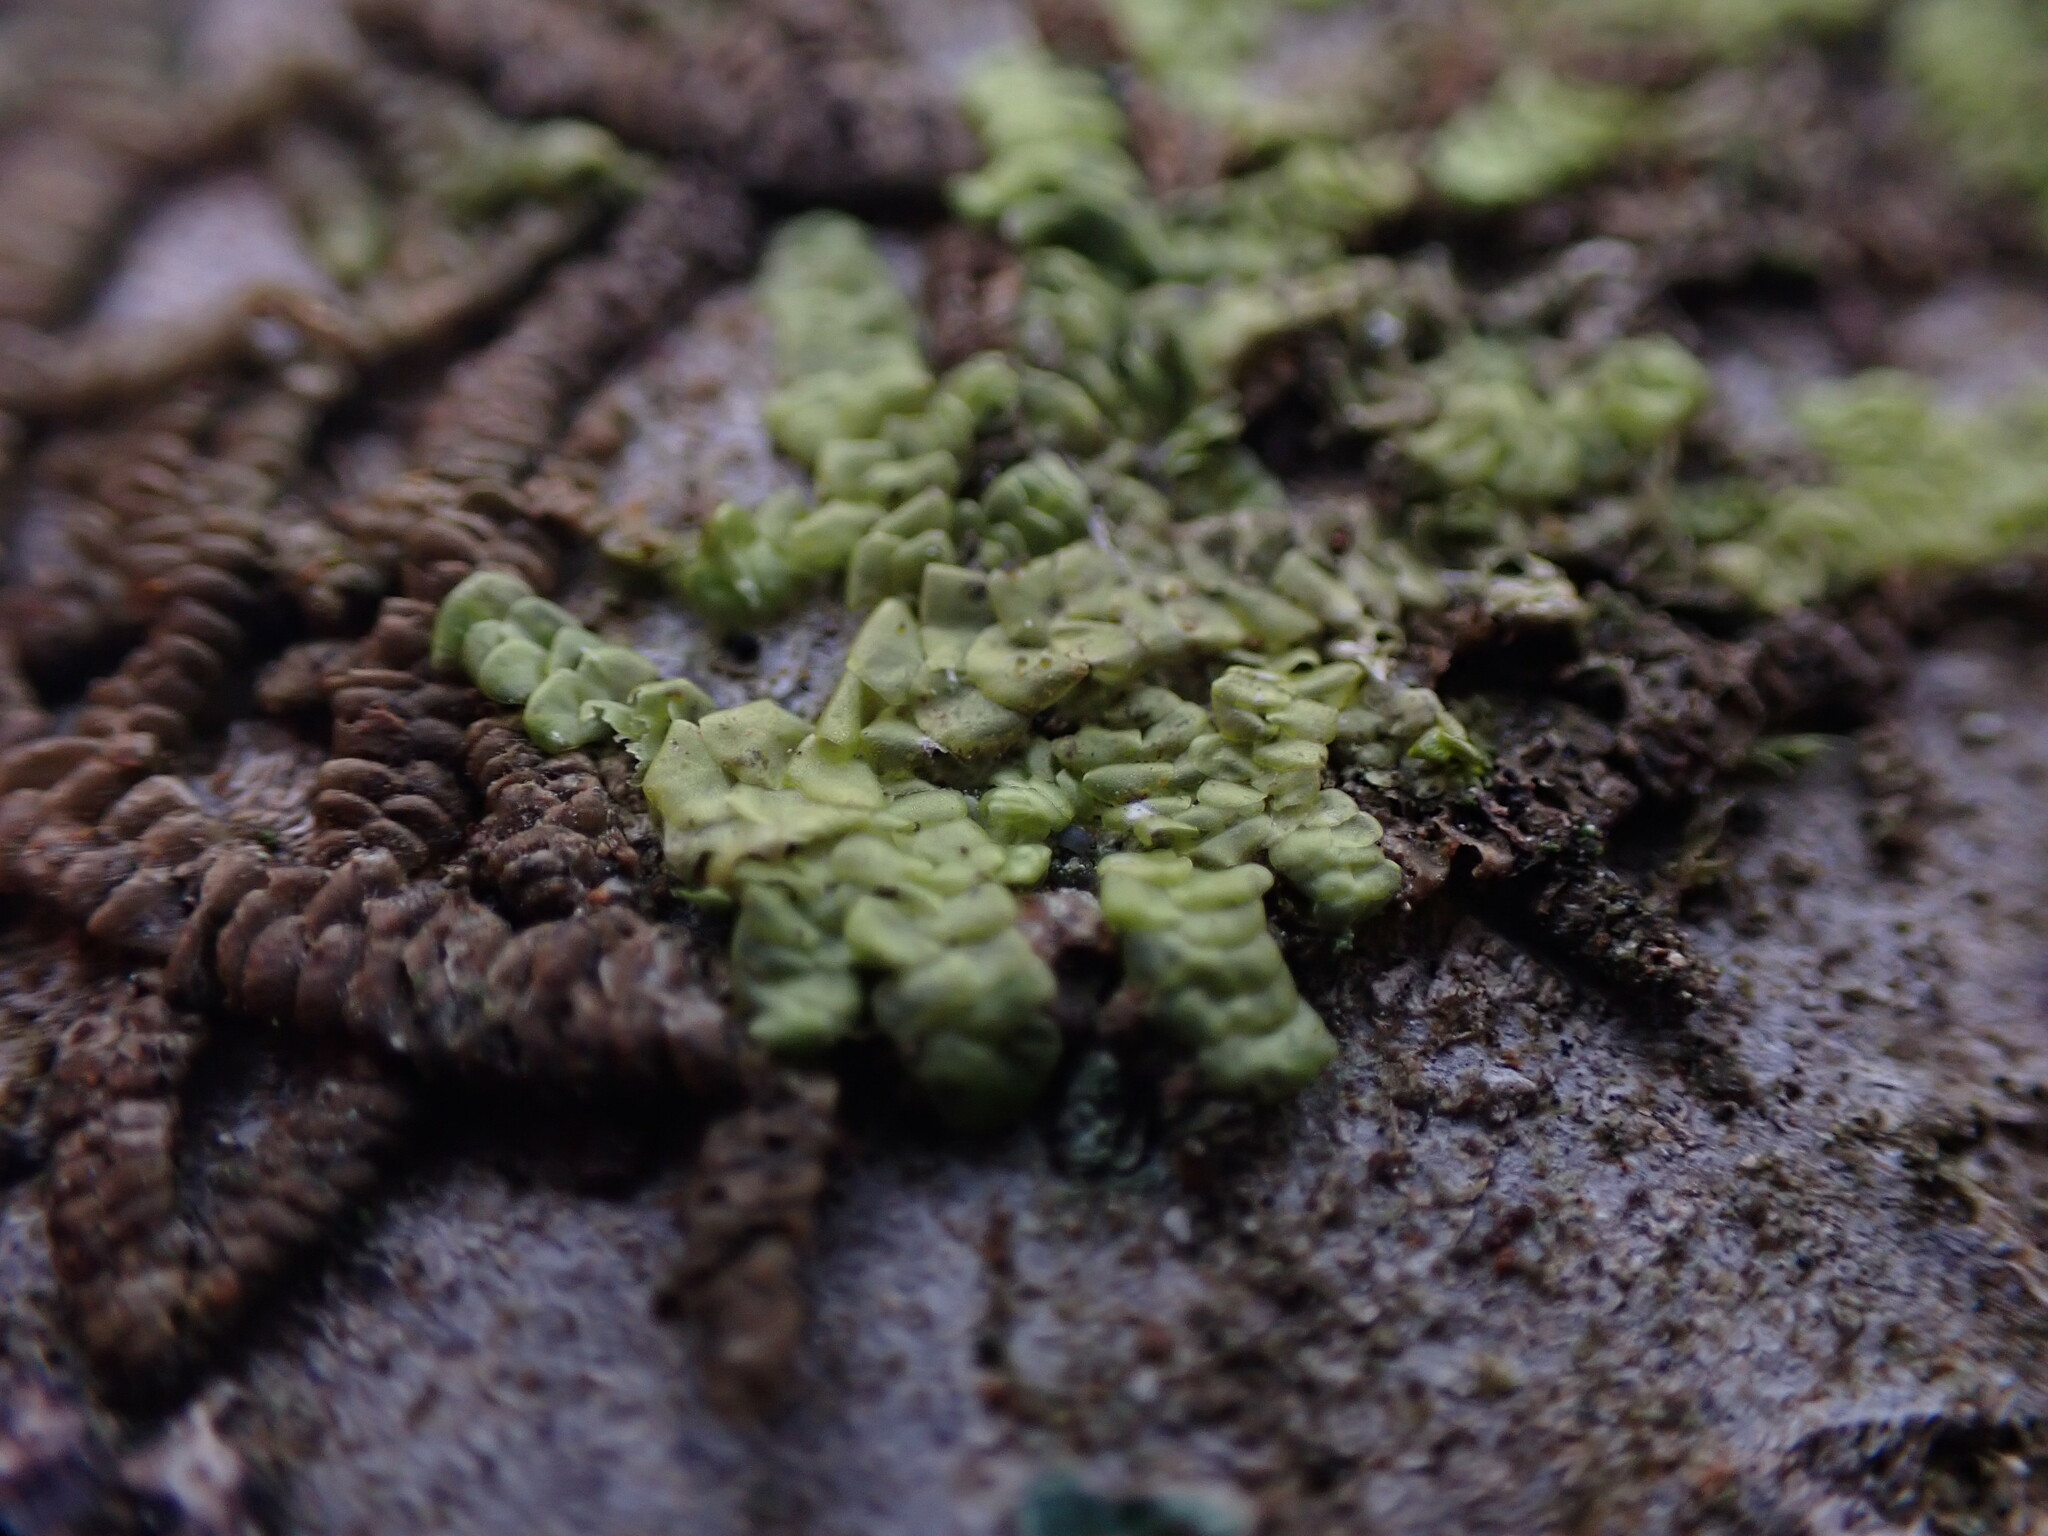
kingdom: Plantae
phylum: Marchantiophyta
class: Jungermanniopsida
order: Porellales
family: Radulaceae
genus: Radula
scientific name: Radula complanata
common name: Flat-leaved scalewort
